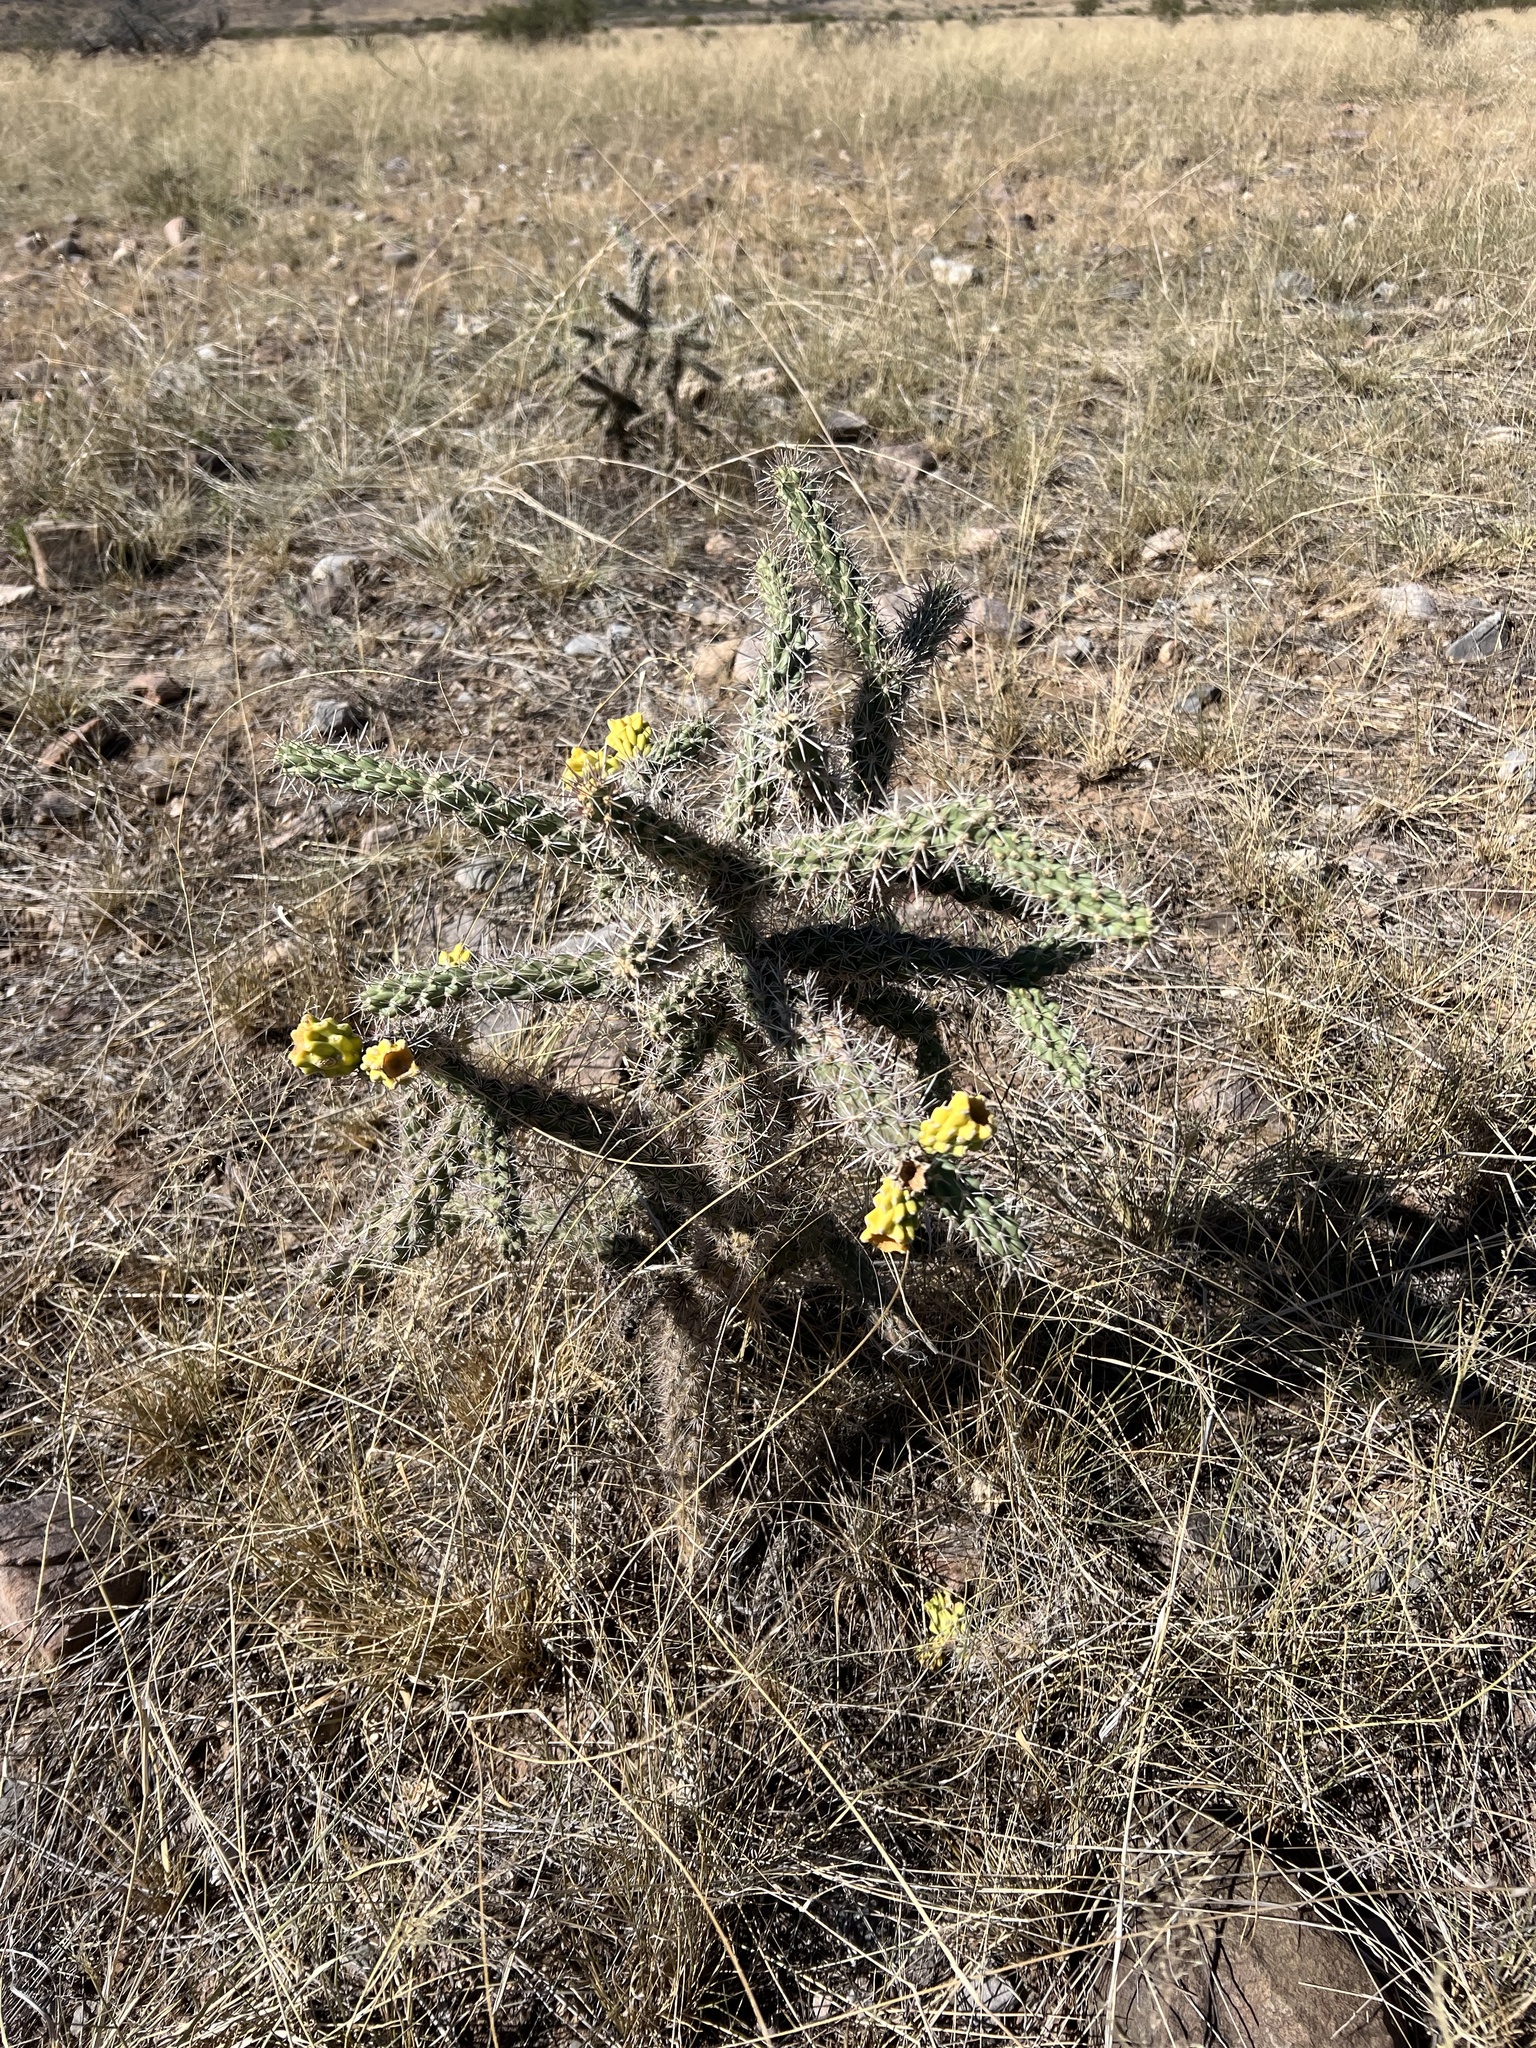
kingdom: Plantae
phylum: Tracheophyta
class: Magnoliopsida
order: Caryophyllales
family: Cactaceae
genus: Cylindropuntia
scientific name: Cylindropuntia imbricata
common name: Candelabrum cactus
